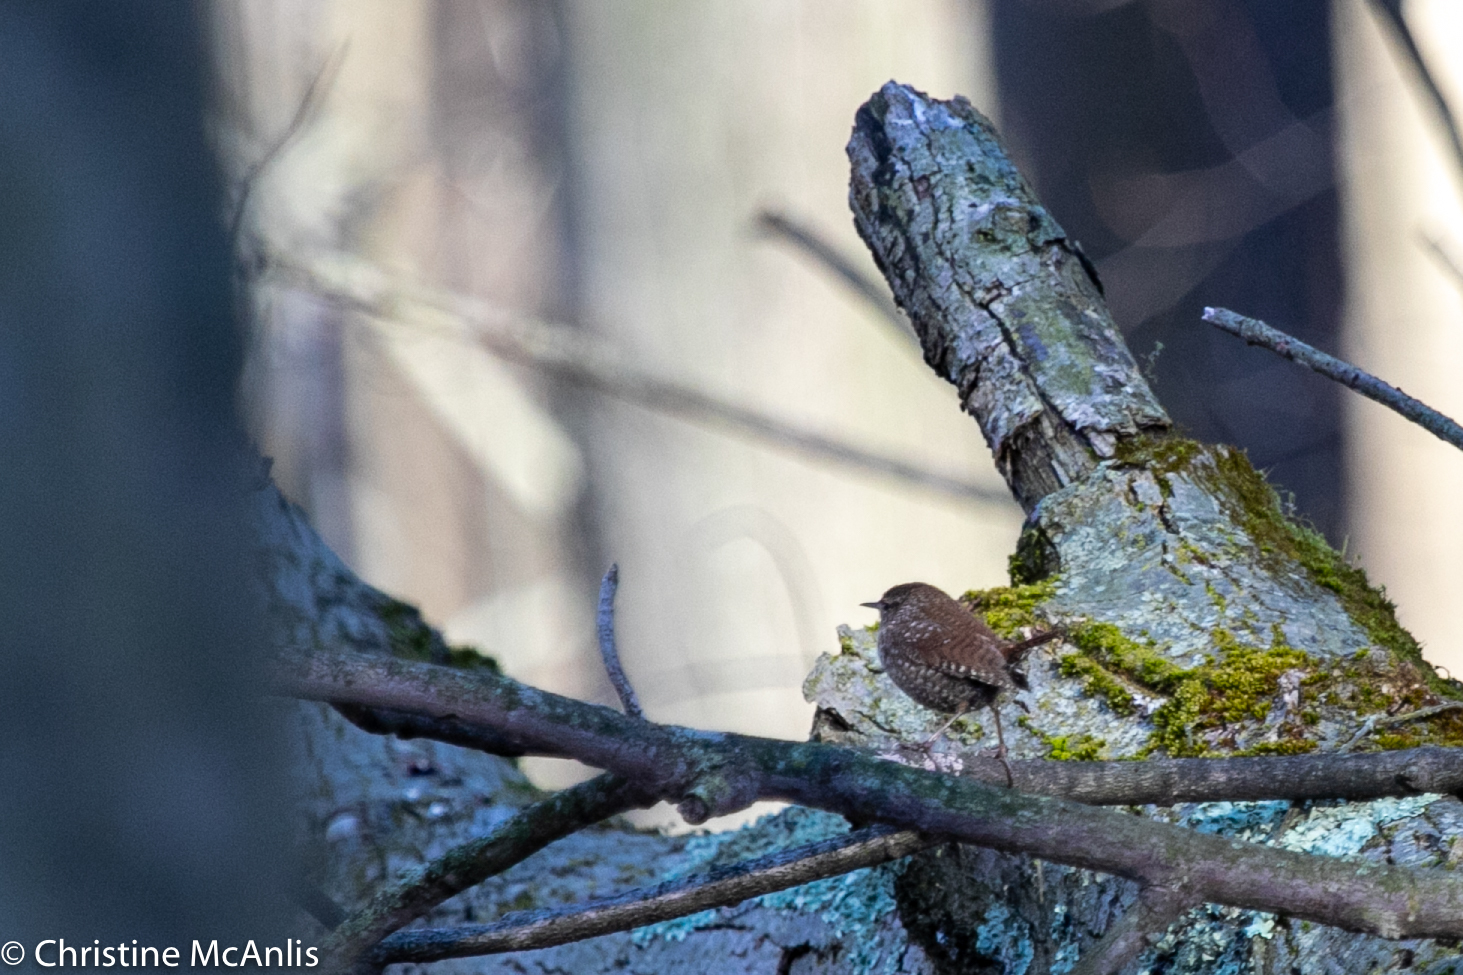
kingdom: Animalia
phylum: Chordata
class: Aves
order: Passeriformes
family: Troglodytidae
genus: Troglodytes
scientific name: Troglodytes hiemalis
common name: Winter wren
